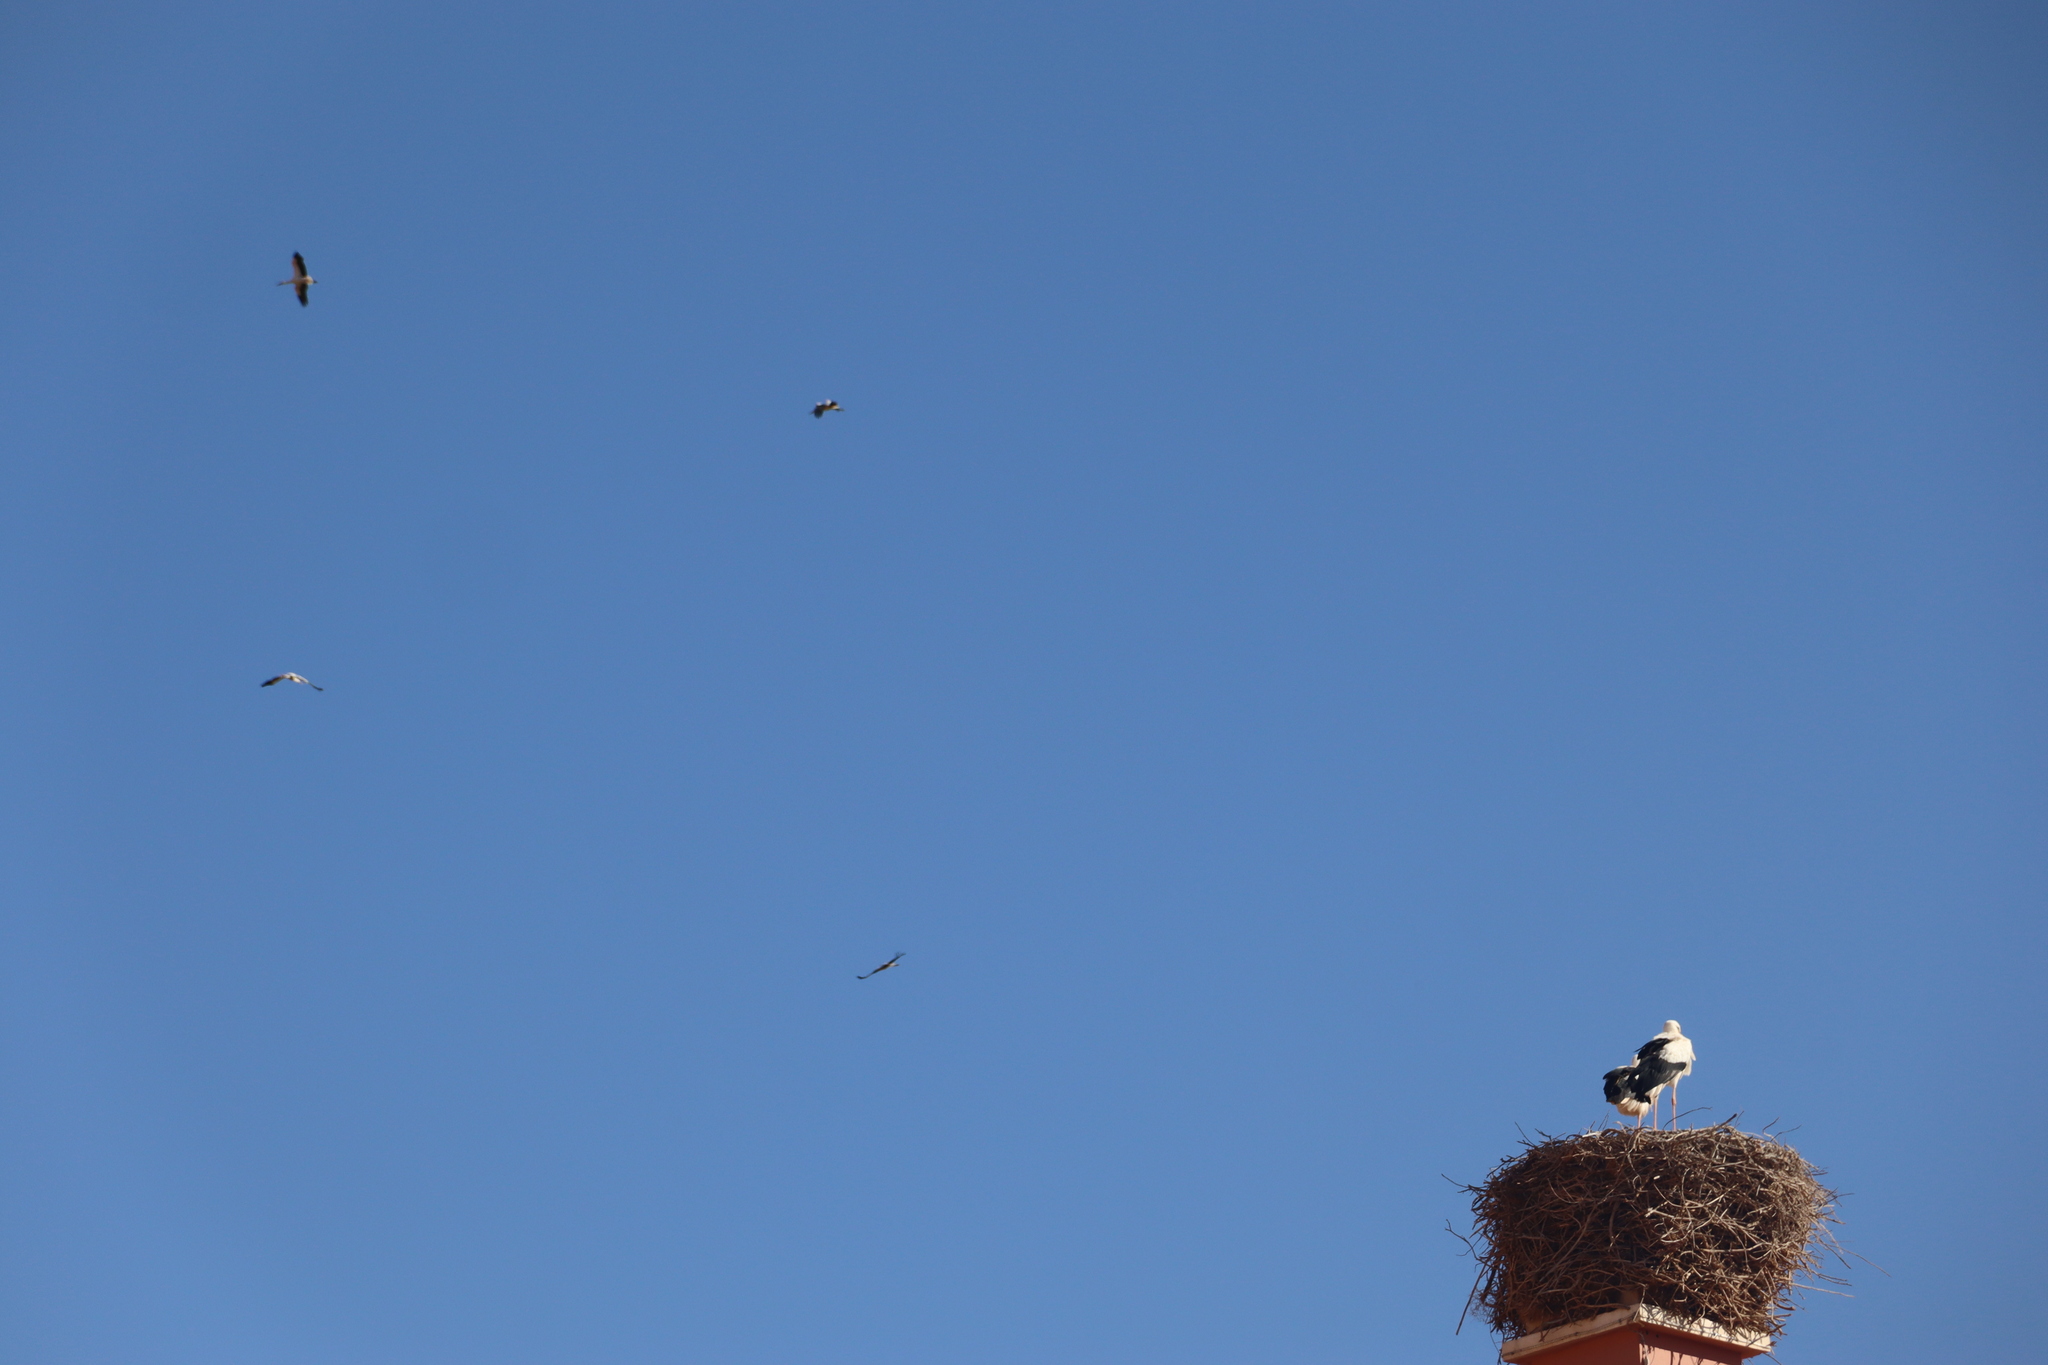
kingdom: Animalia
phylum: Chordata
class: Aves
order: Ciconiiformes
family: Ciconiidae
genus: Ciconia
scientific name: Ciconia ciconia
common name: White stork
